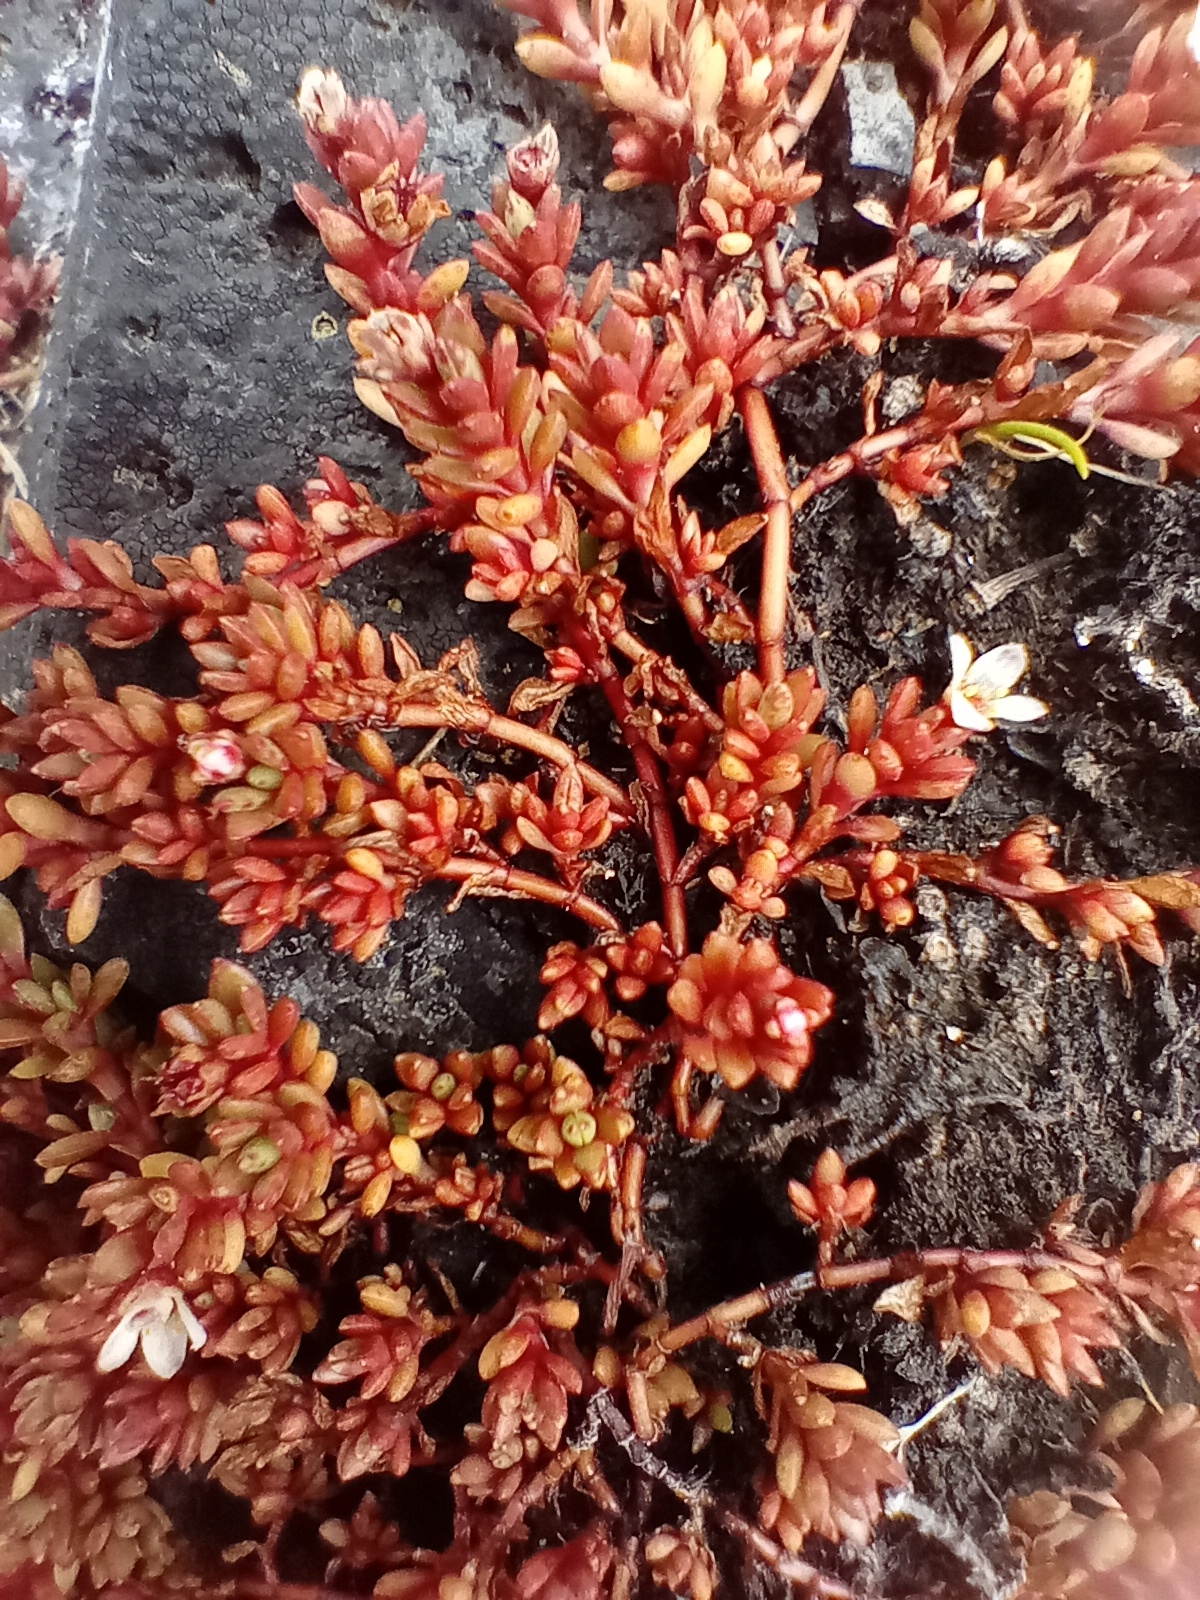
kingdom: Plantae
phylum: Tracheophyta
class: Magnoliopsida
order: Saxifragales
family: Crassulaceae
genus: Crassula
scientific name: Crassula moschata
